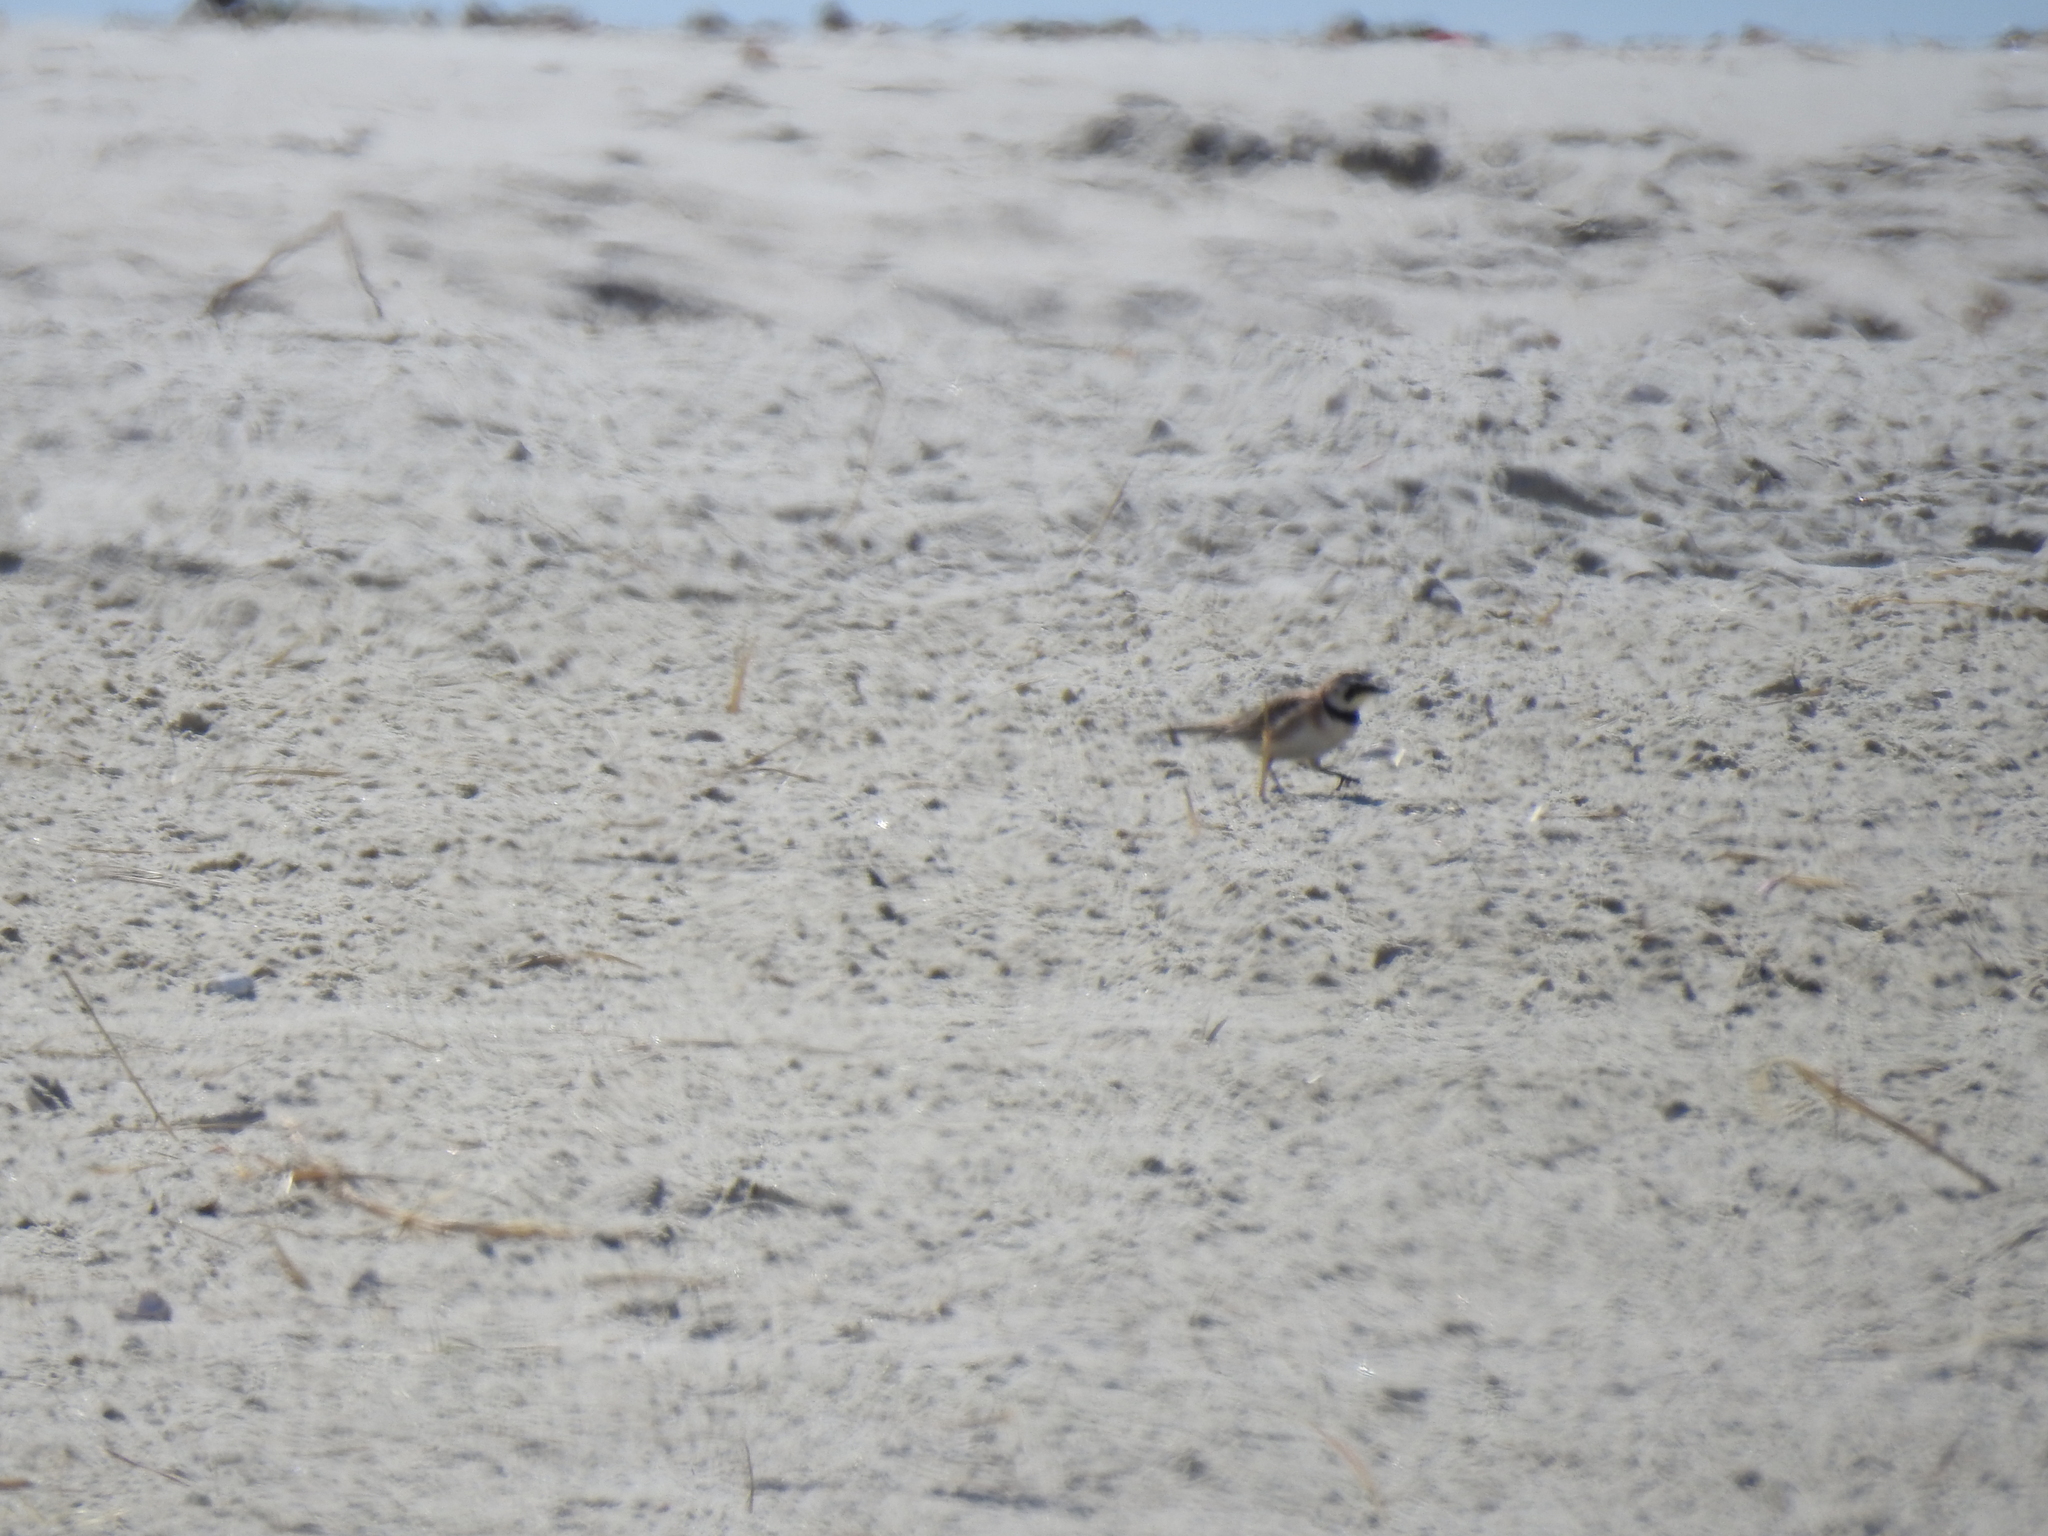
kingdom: Animalia
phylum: Chordata
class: Aves
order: Passeriformes
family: Alaudidae
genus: Eremophila
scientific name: Eremophila alpestris
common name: Horned lark
